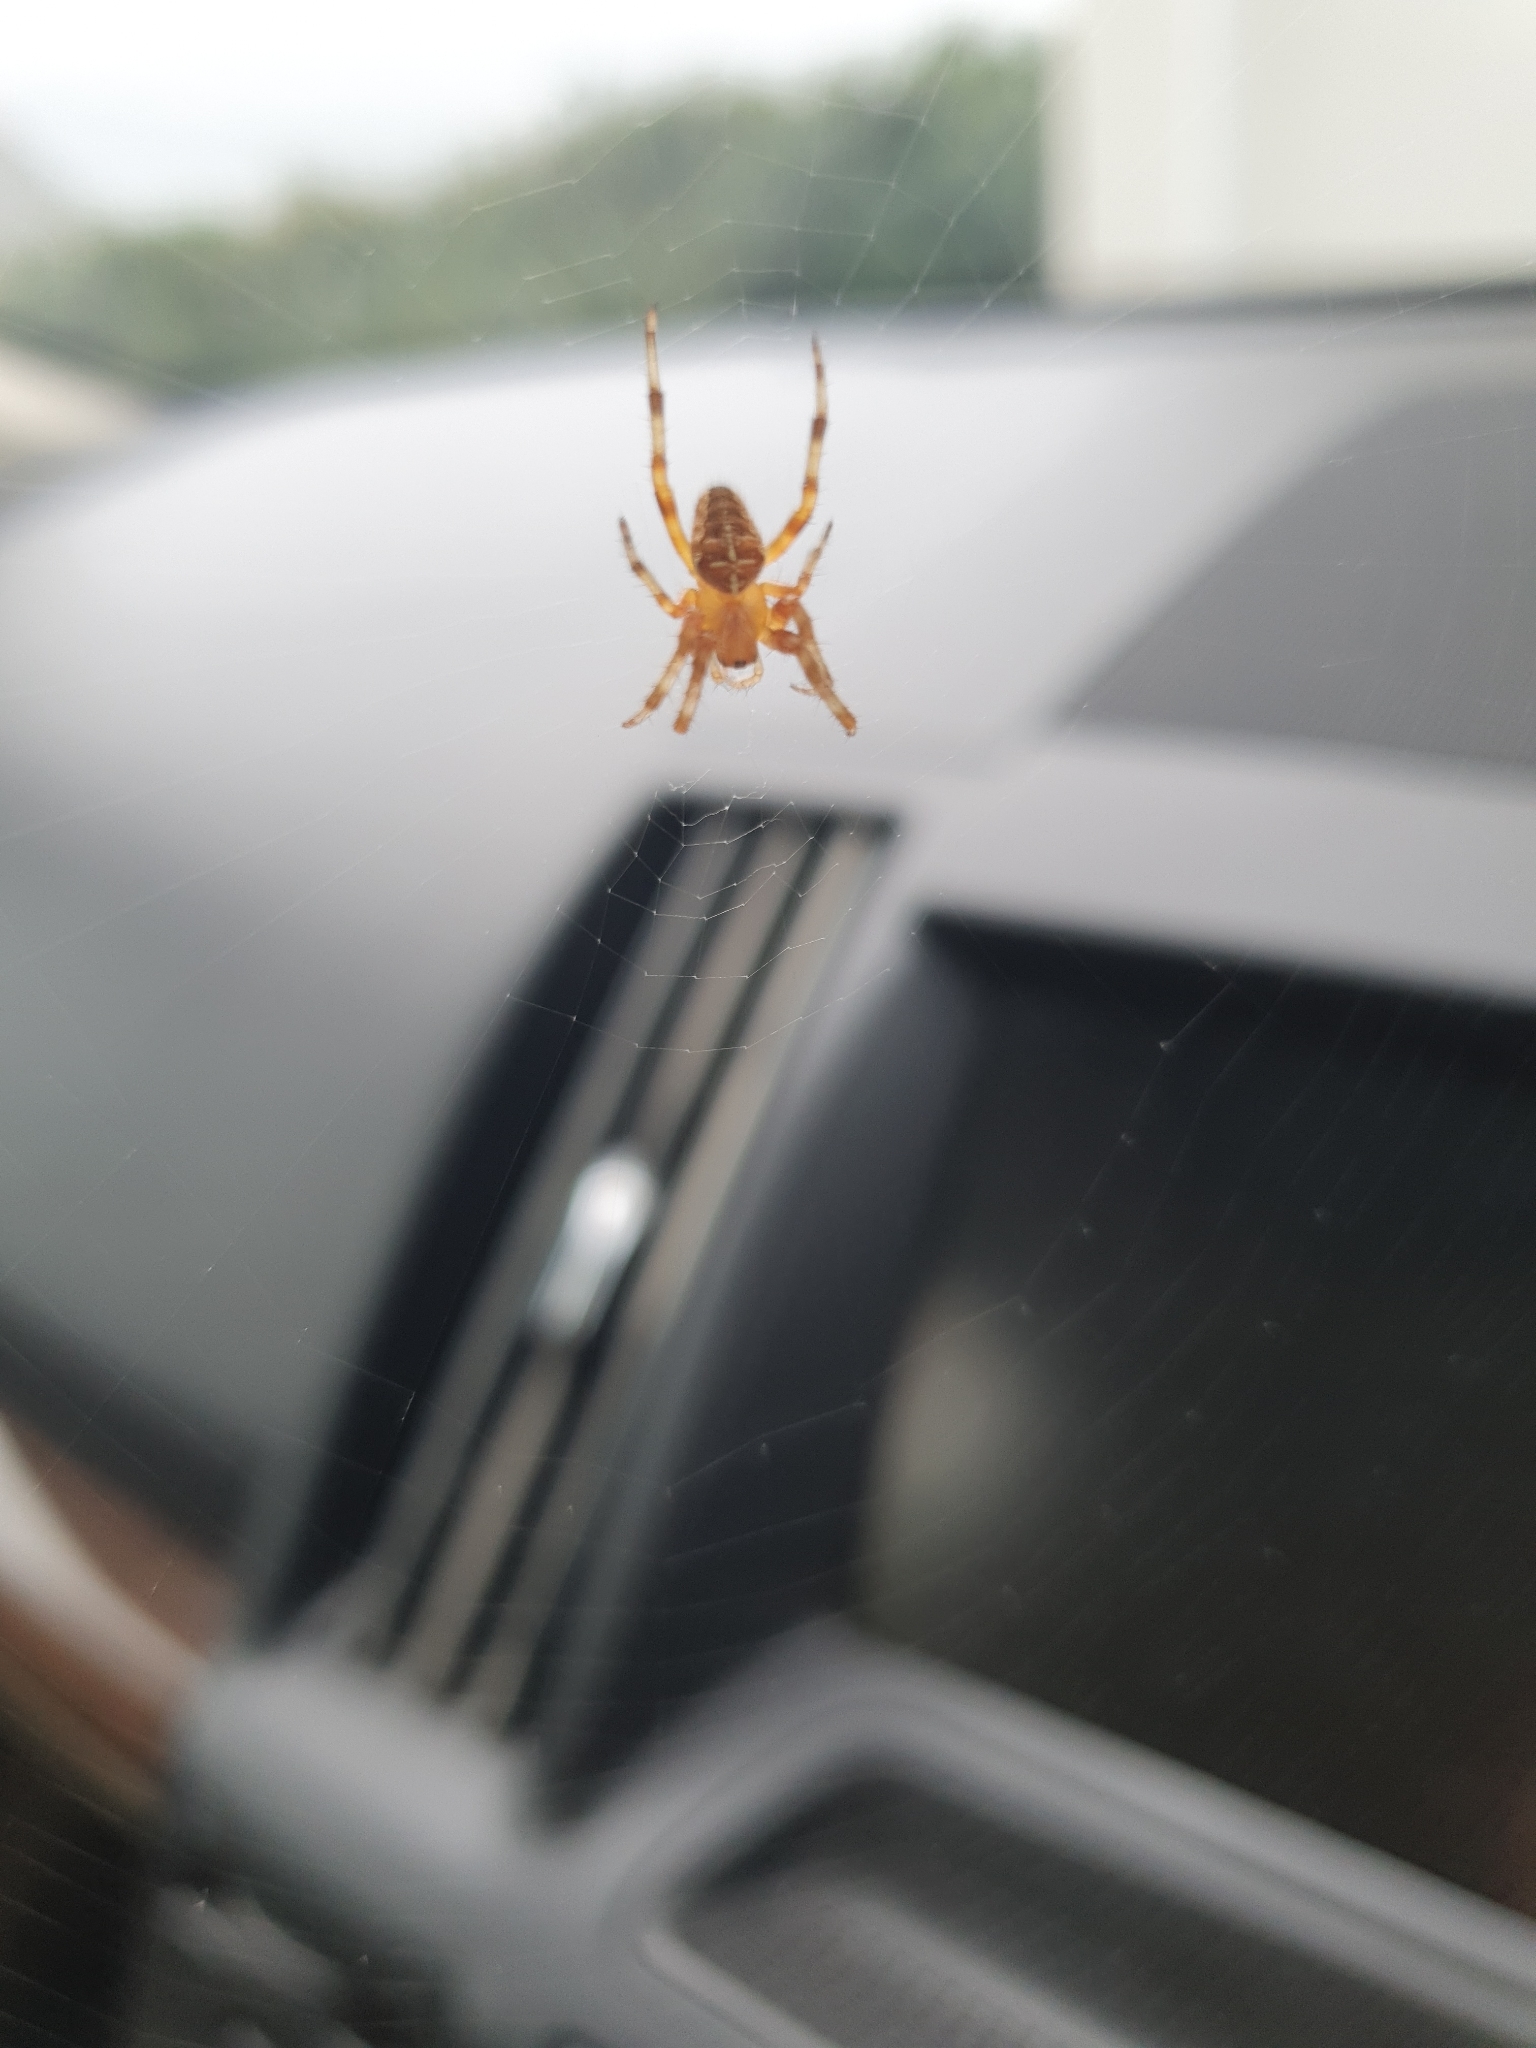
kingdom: Animalia
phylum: Arthropoda
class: Arachnida
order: Araneae
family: Araneidae
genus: Araneus
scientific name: Araneus diadematus
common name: Cross orbweaver
